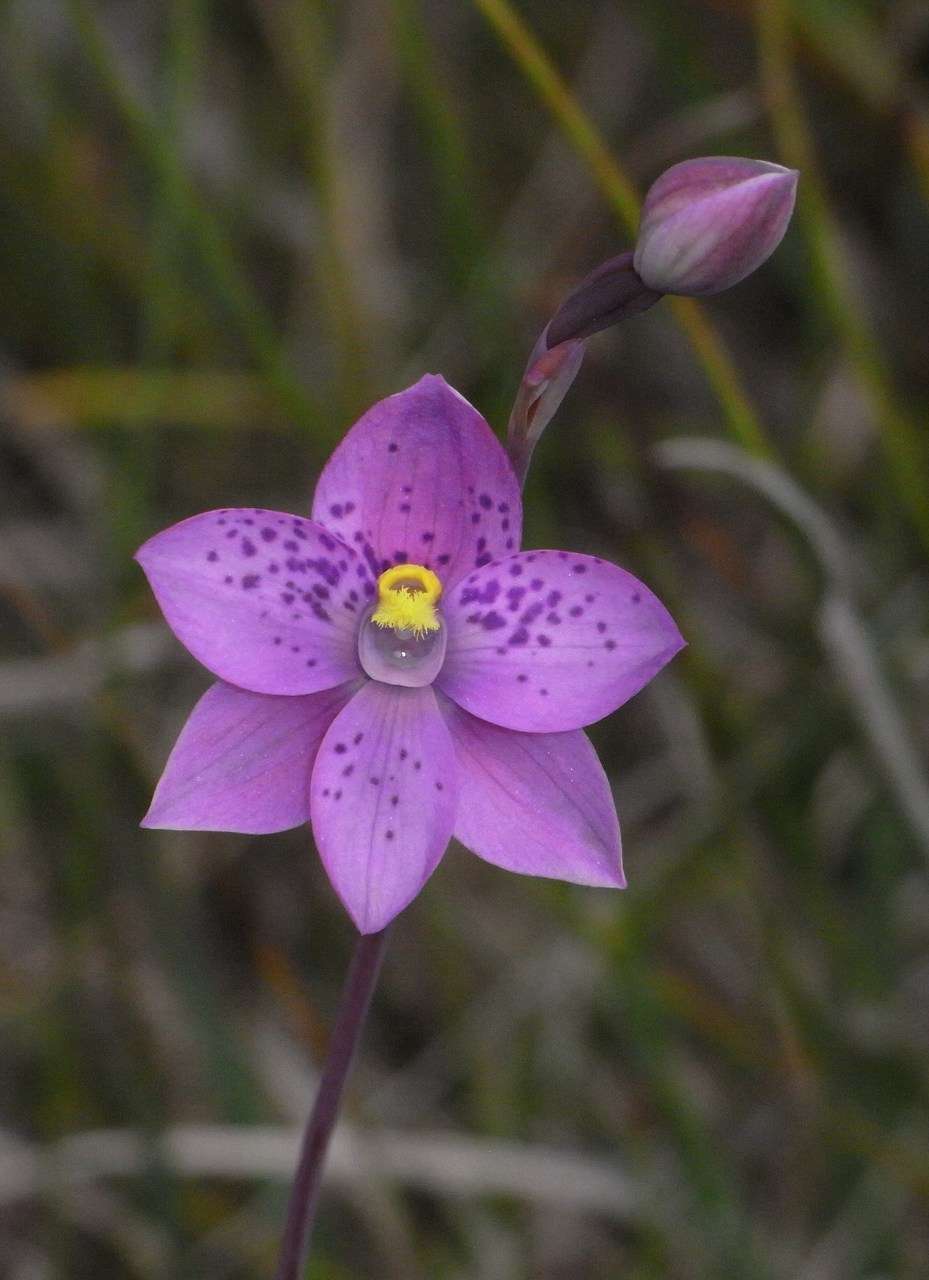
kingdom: Plantae
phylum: Tracheophyta
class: Liliopsida
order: Asparagales
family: Orchidaceae
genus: Thelymitra
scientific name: Thelymitra irregularis
